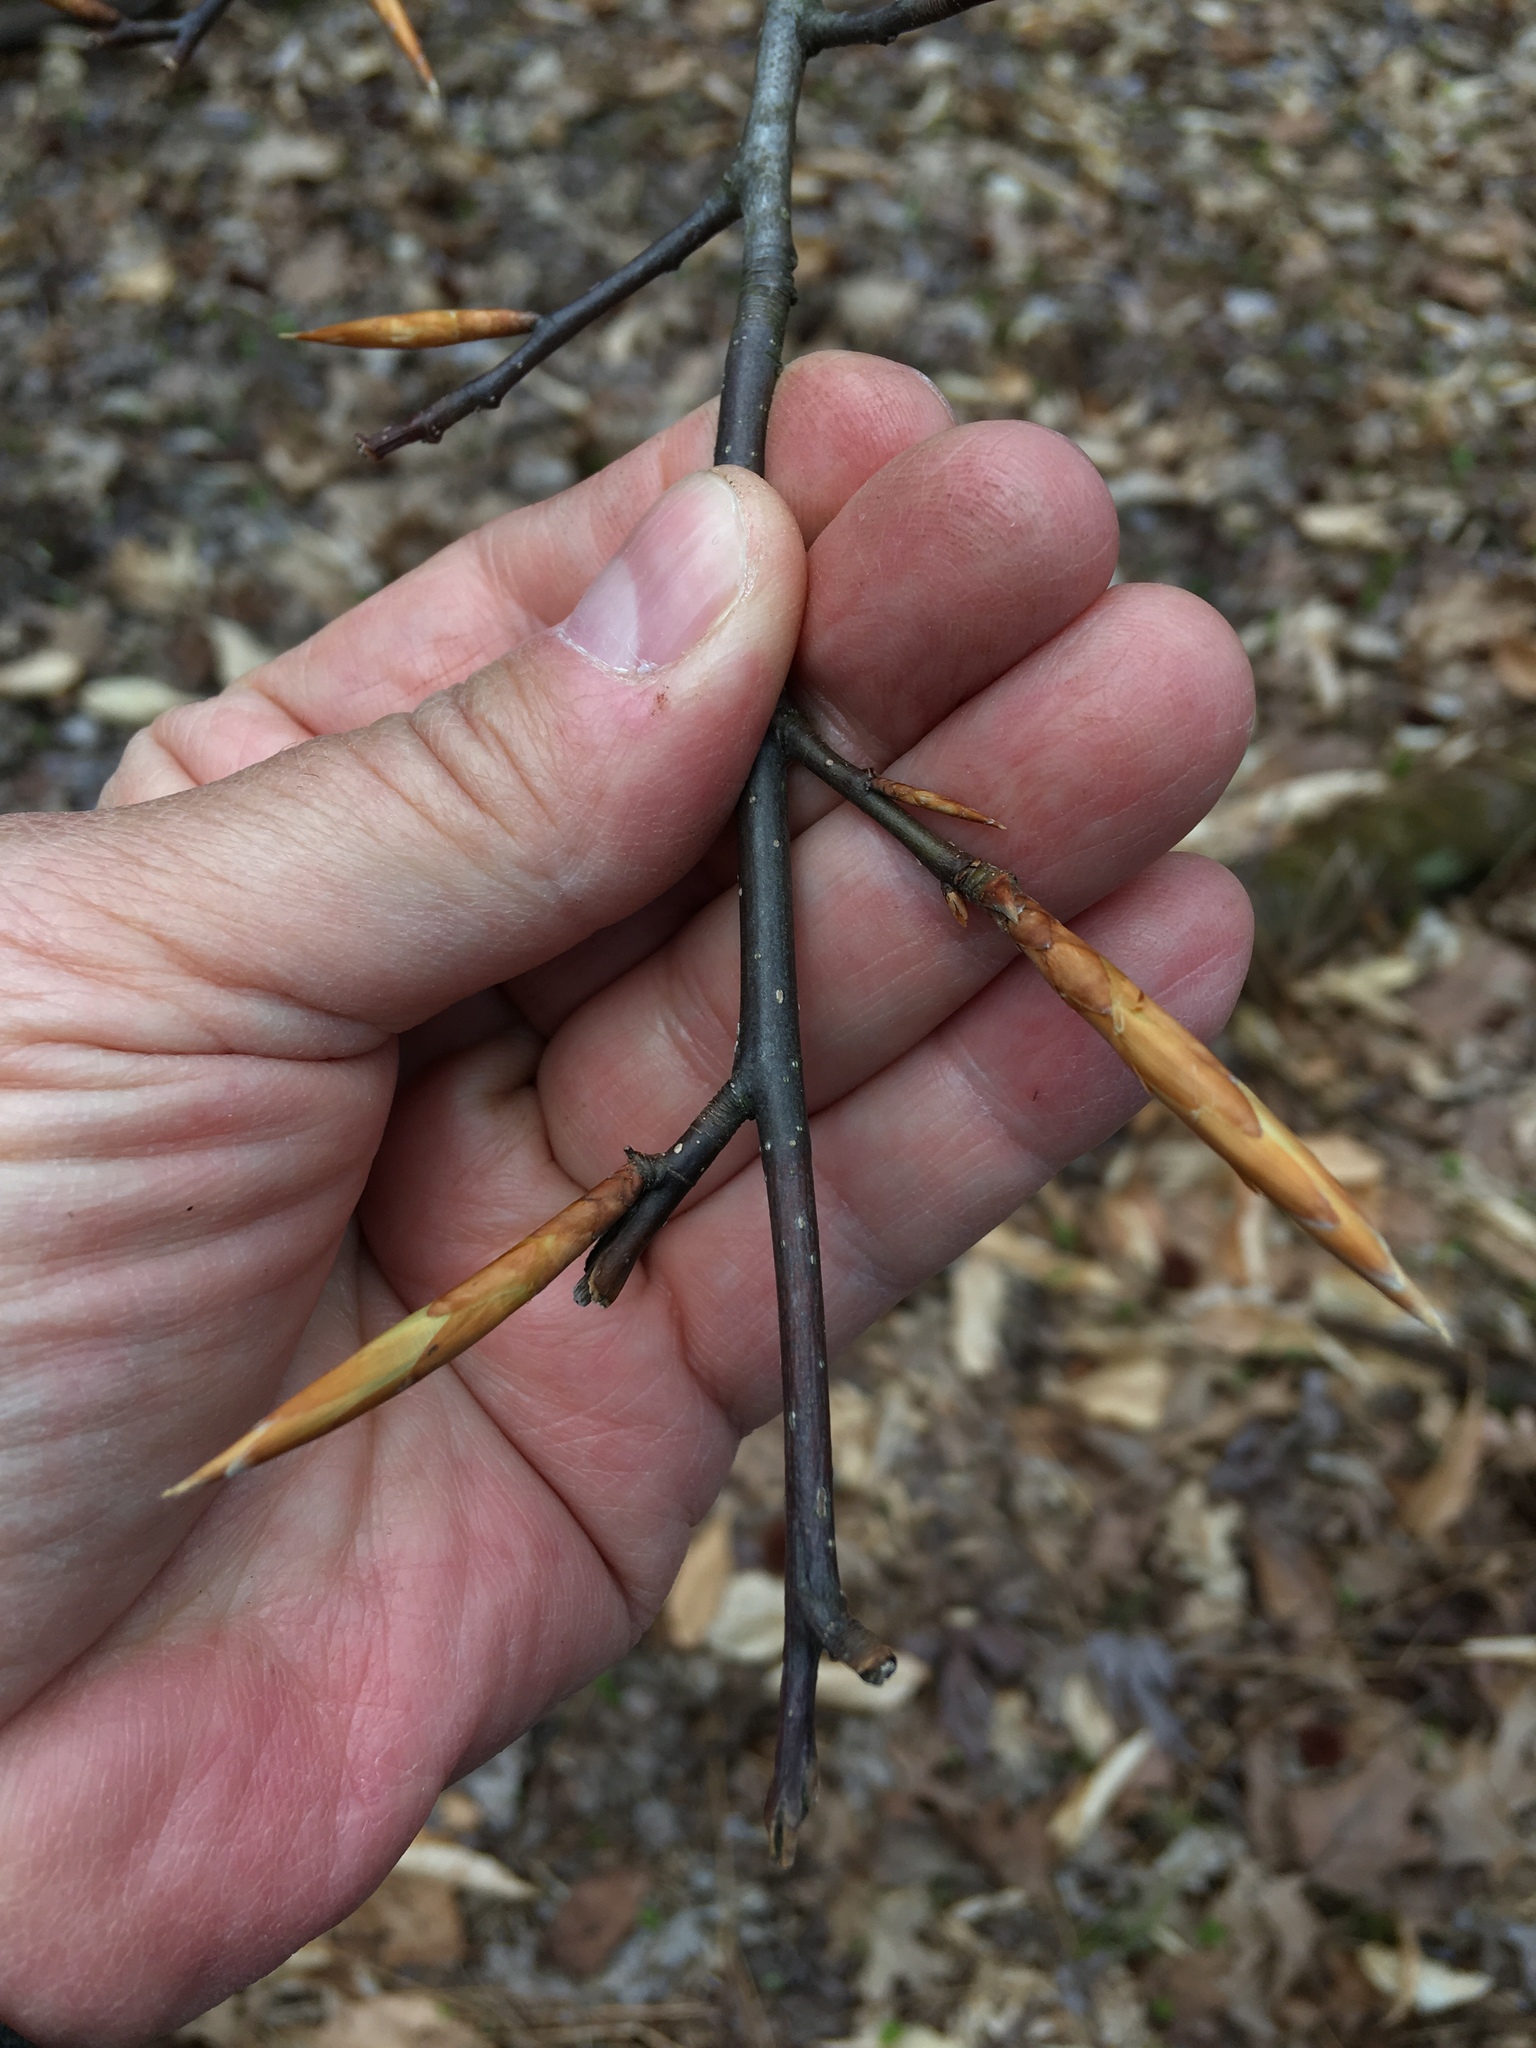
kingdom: Plantae
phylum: Tracheophyta
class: Magnoliopsida
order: Fagales
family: Fagaceae
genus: Fagus
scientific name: Fagus grandifolia
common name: American beech
